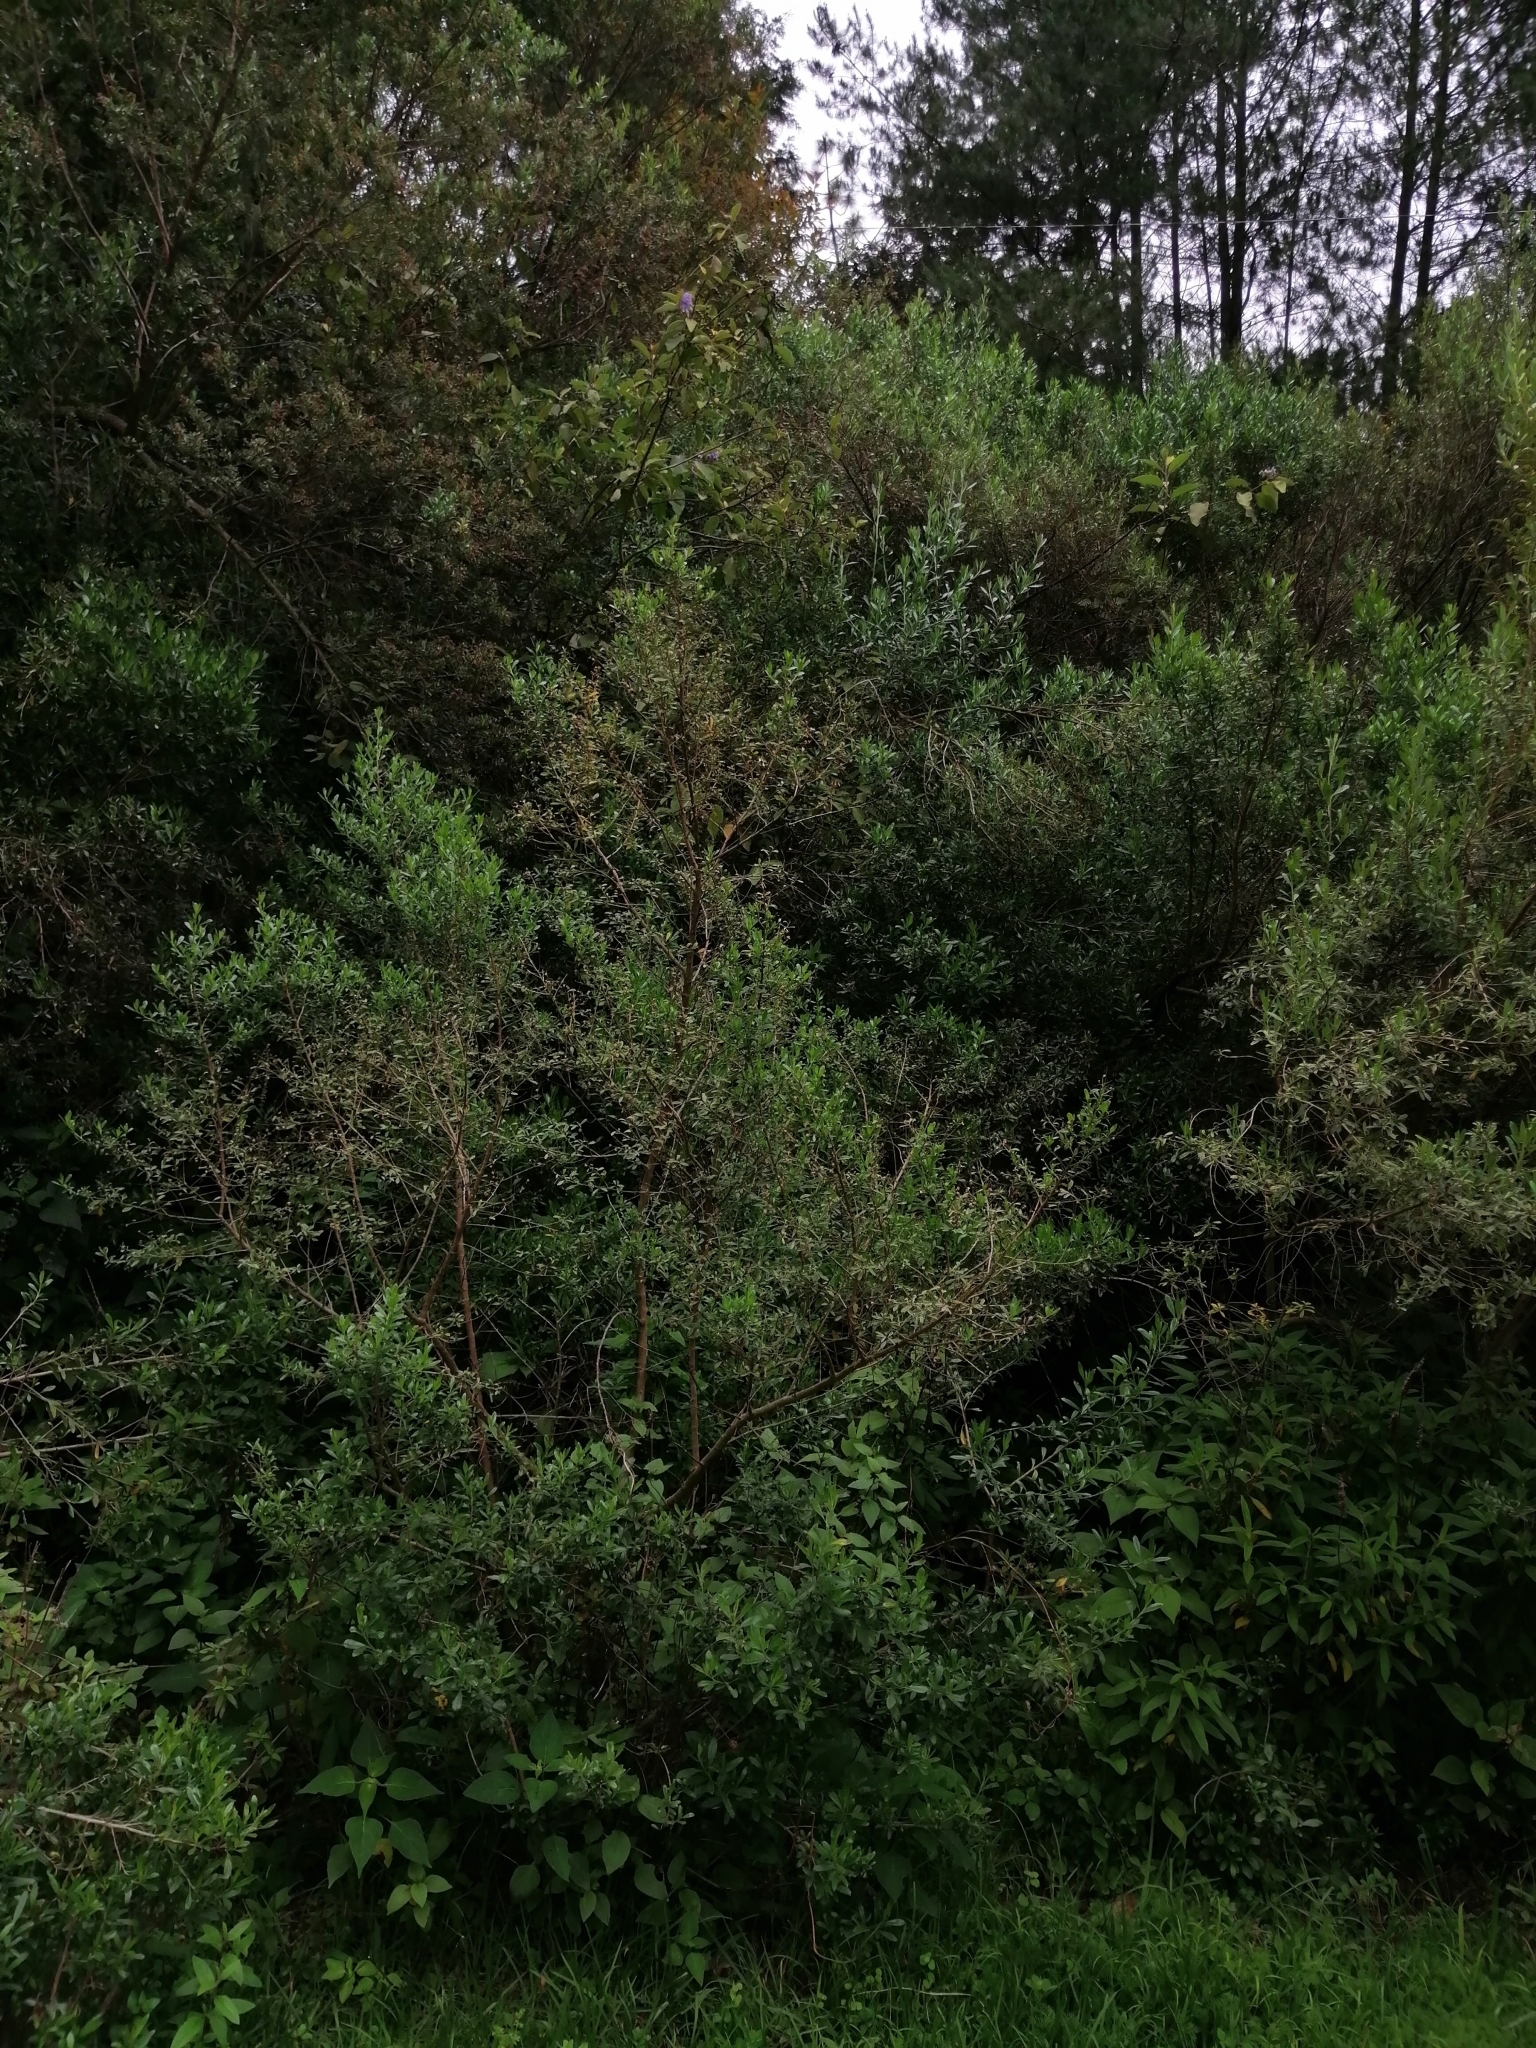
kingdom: Plantae
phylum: Tracheophyta
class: Magnoliopsida
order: Asterales
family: Asteraceae
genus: Baccharis
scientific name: Baccharis heterophylla
